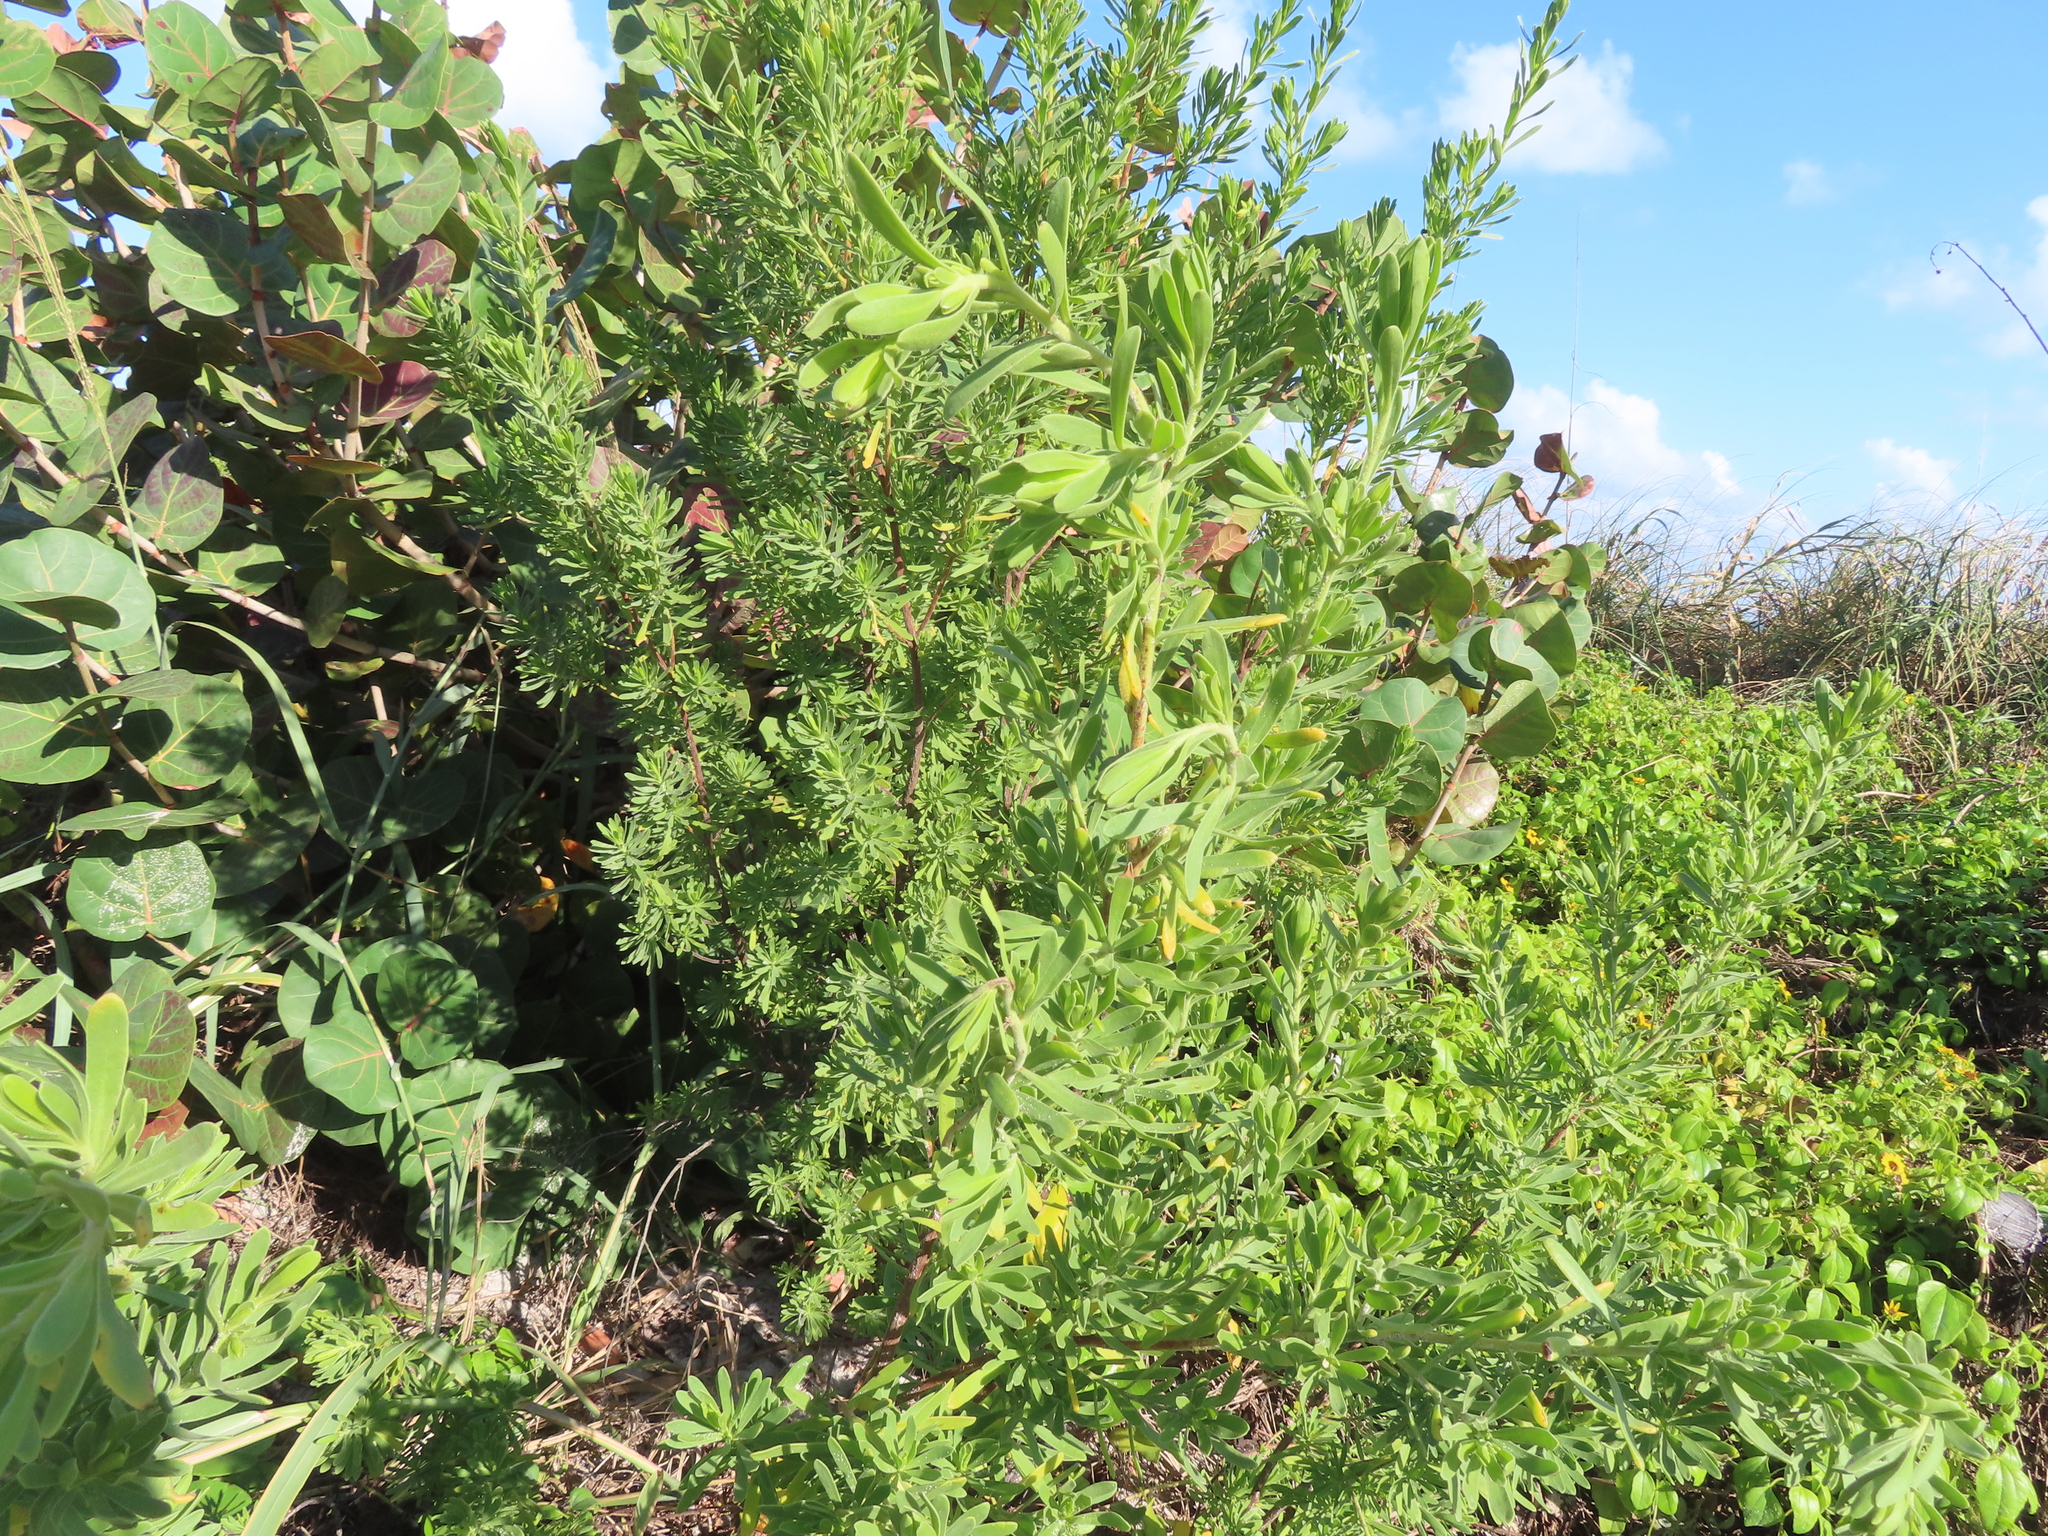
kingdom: Plantae
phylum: Tracheophyta
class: Magnoliopsida
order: Fabales
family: Surianaceae
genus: Suriana
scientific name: Suriana maritima
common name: Bay-cedar
